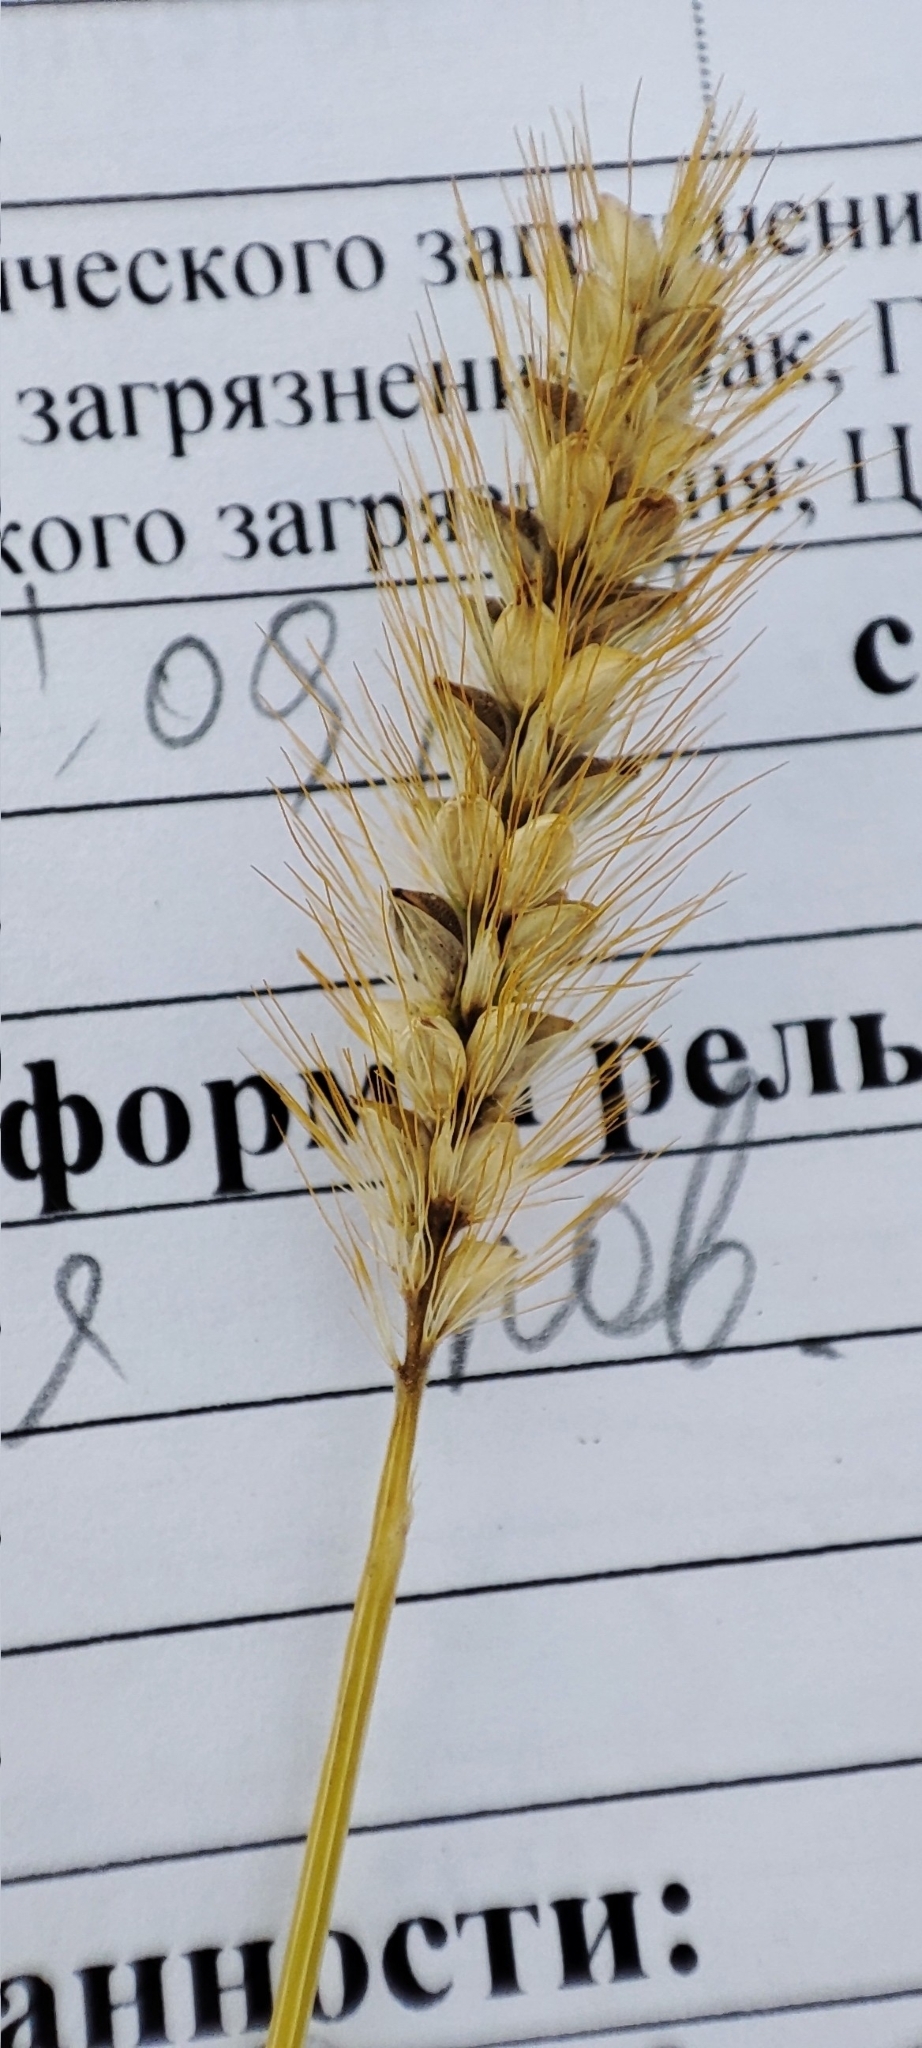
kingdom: Plantae
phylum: Tracheophyta
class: Liliopsida
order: Poales
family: Poaceae
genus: Setaria
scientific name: Setaria pumila
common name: Yellow bristle-grass
